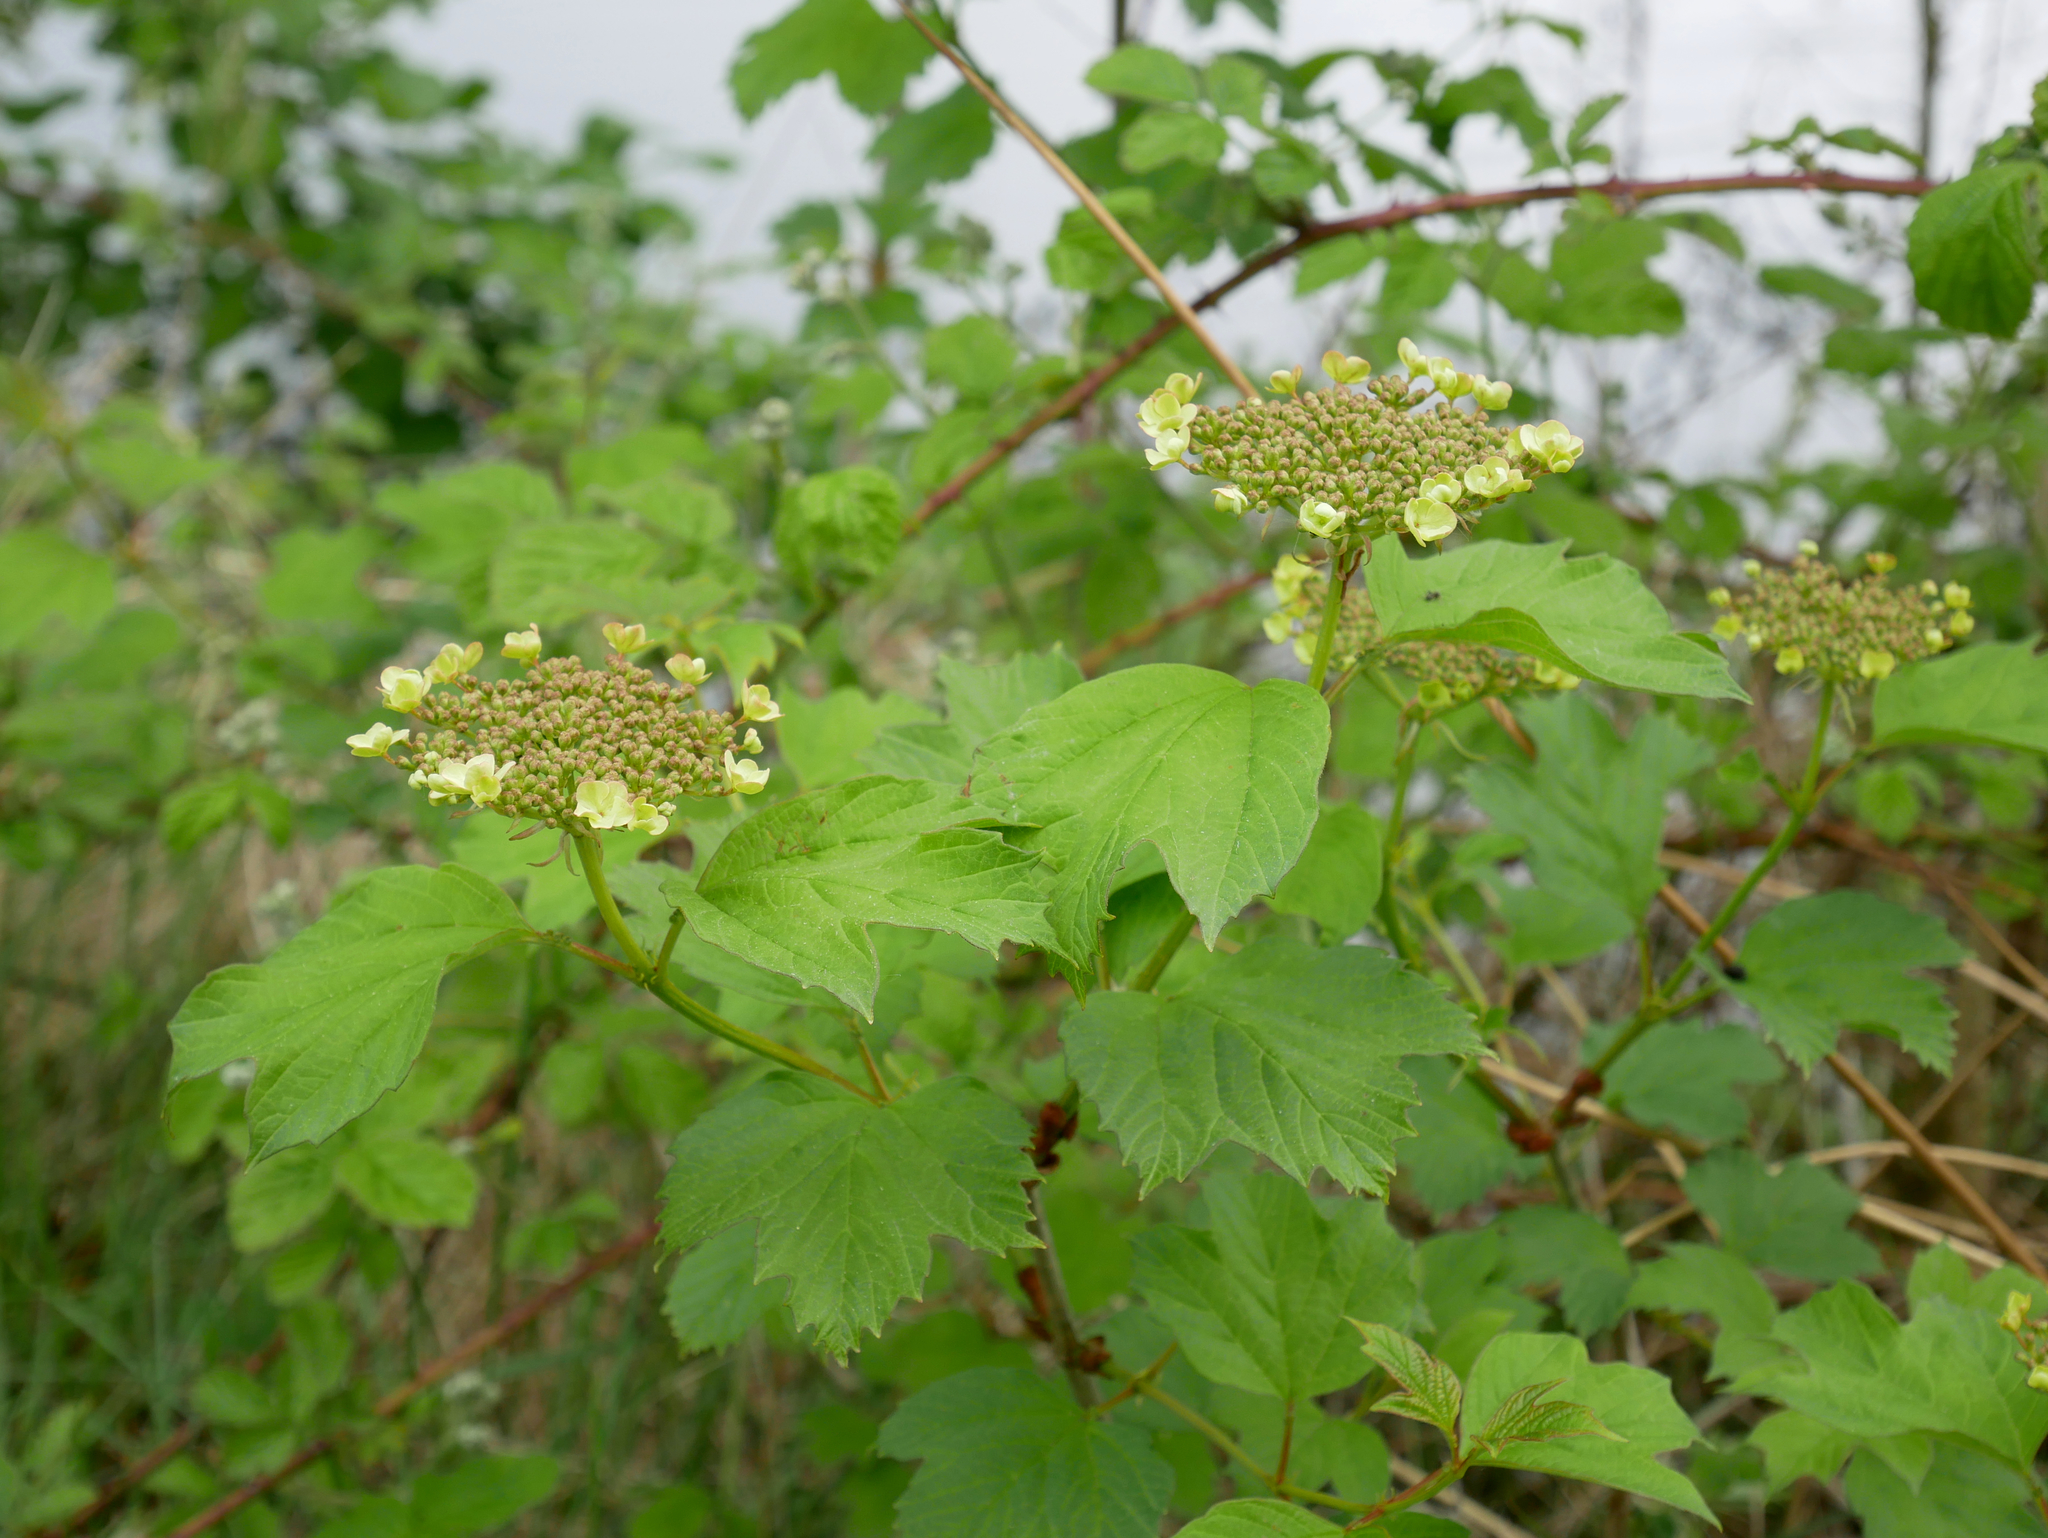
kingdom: Plantae
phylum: Tracheophyta
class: Magnoliopsida
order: Dipsacales
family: Viburnaceae
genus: Viburnum
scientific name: Viburnum opulus
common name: Guelder-rose
